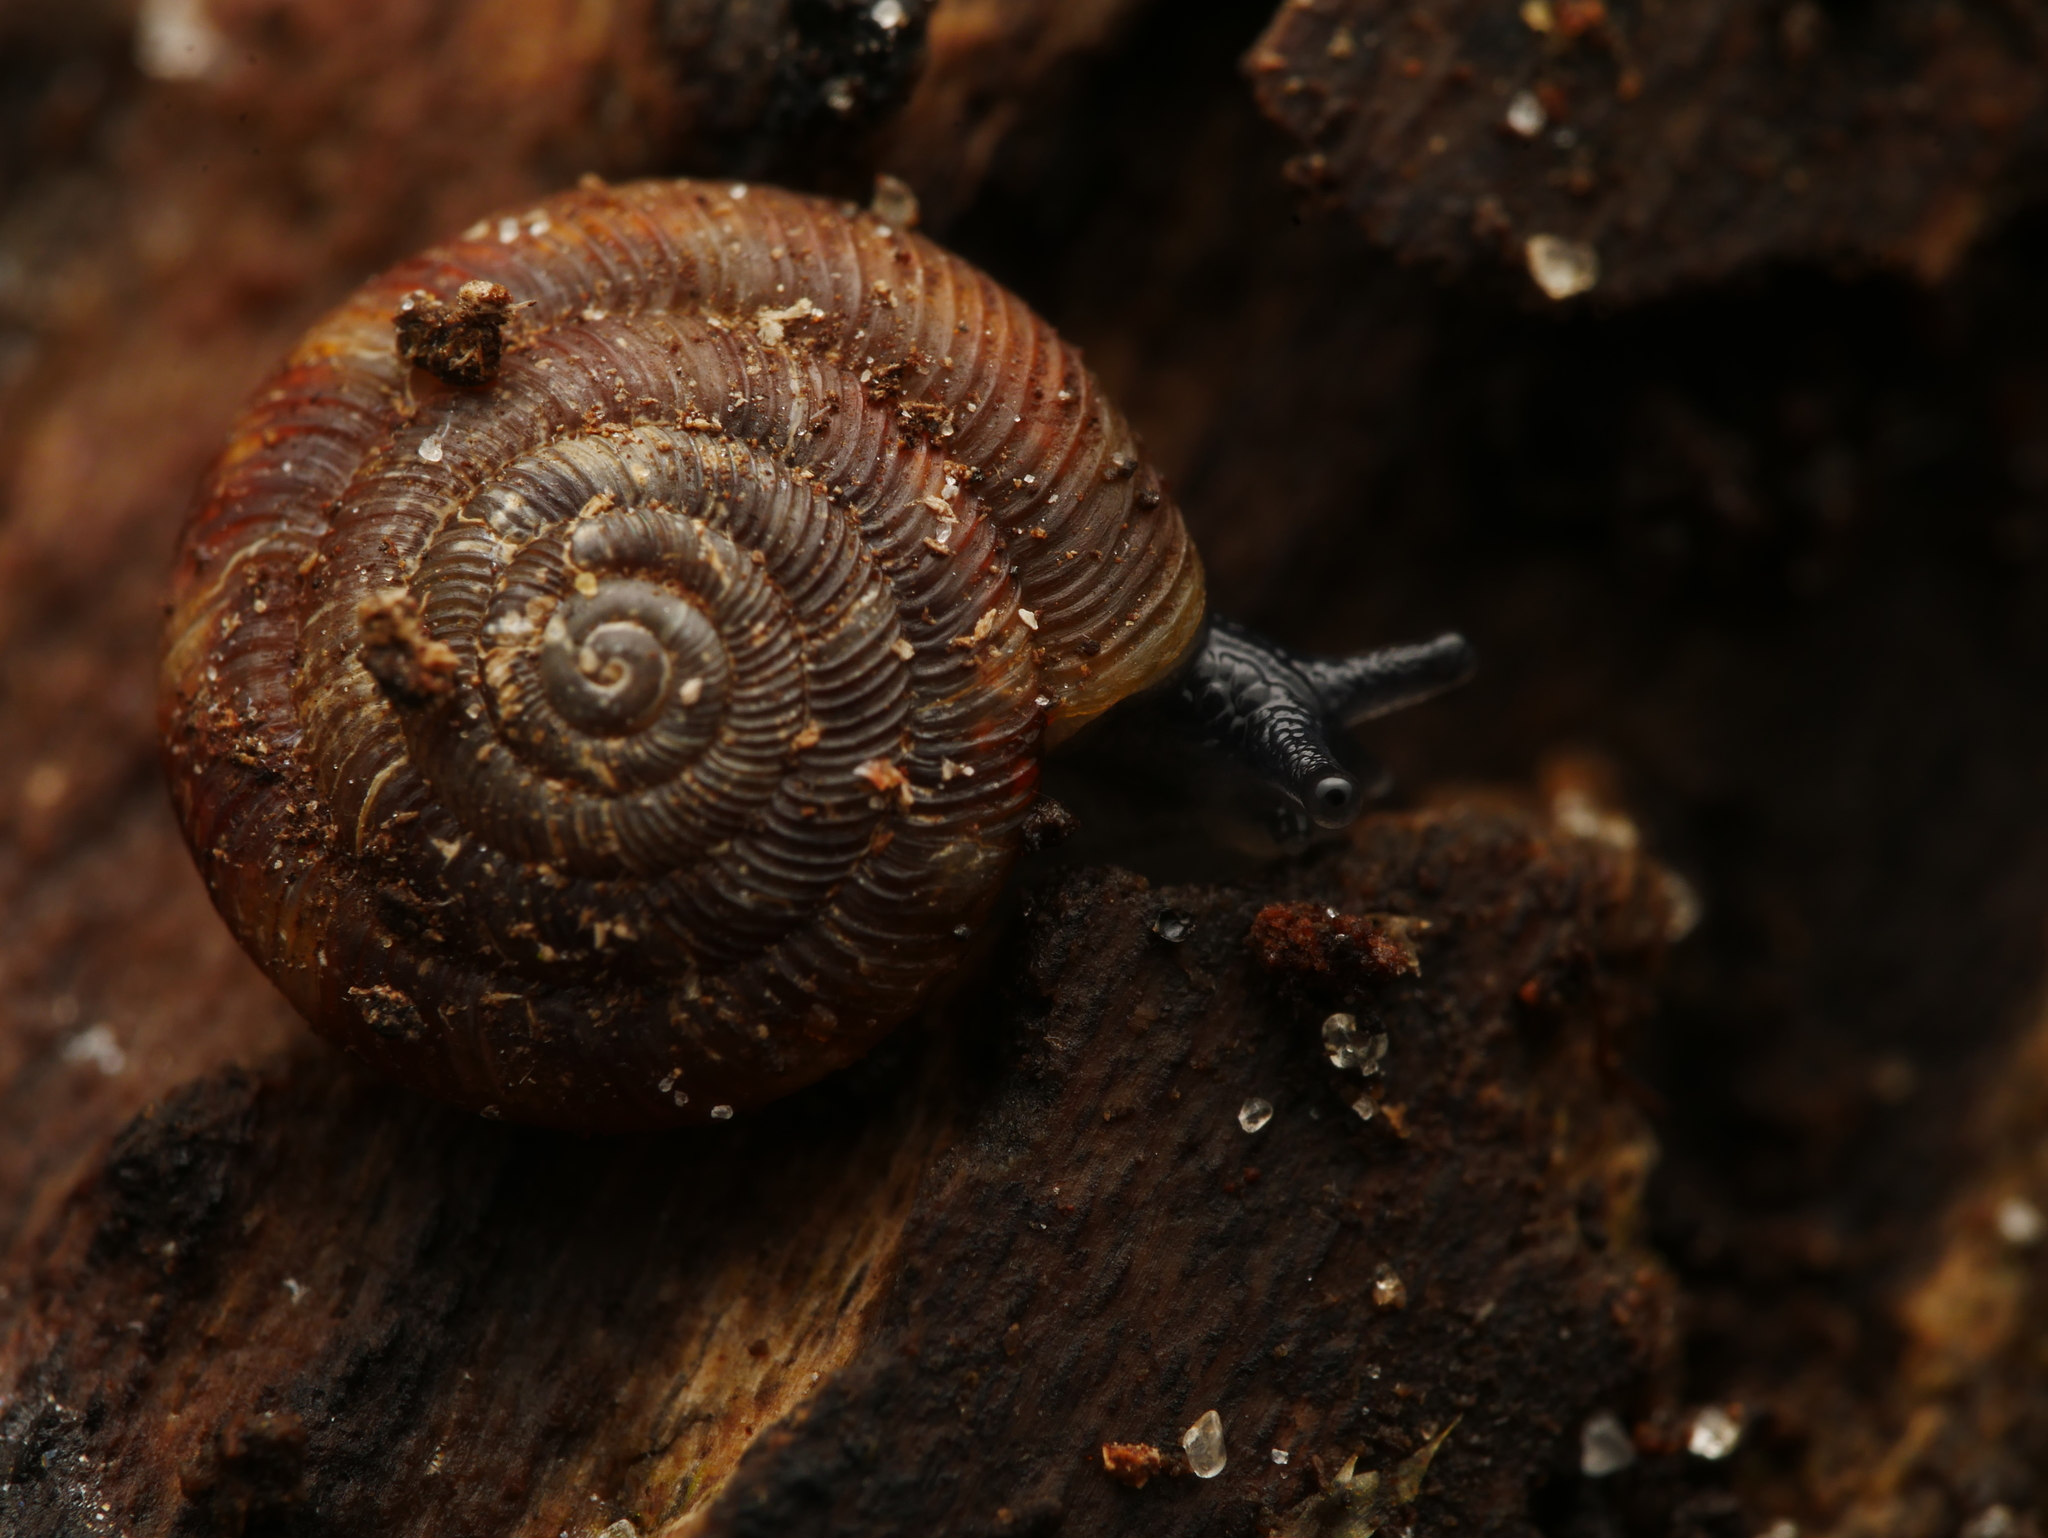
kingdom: Animalia
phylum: Mollusca
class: Gastropoda
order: Stylommatophora
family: Discidae
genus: Discus
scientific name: Discus rotundatus
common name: Rounded snail
